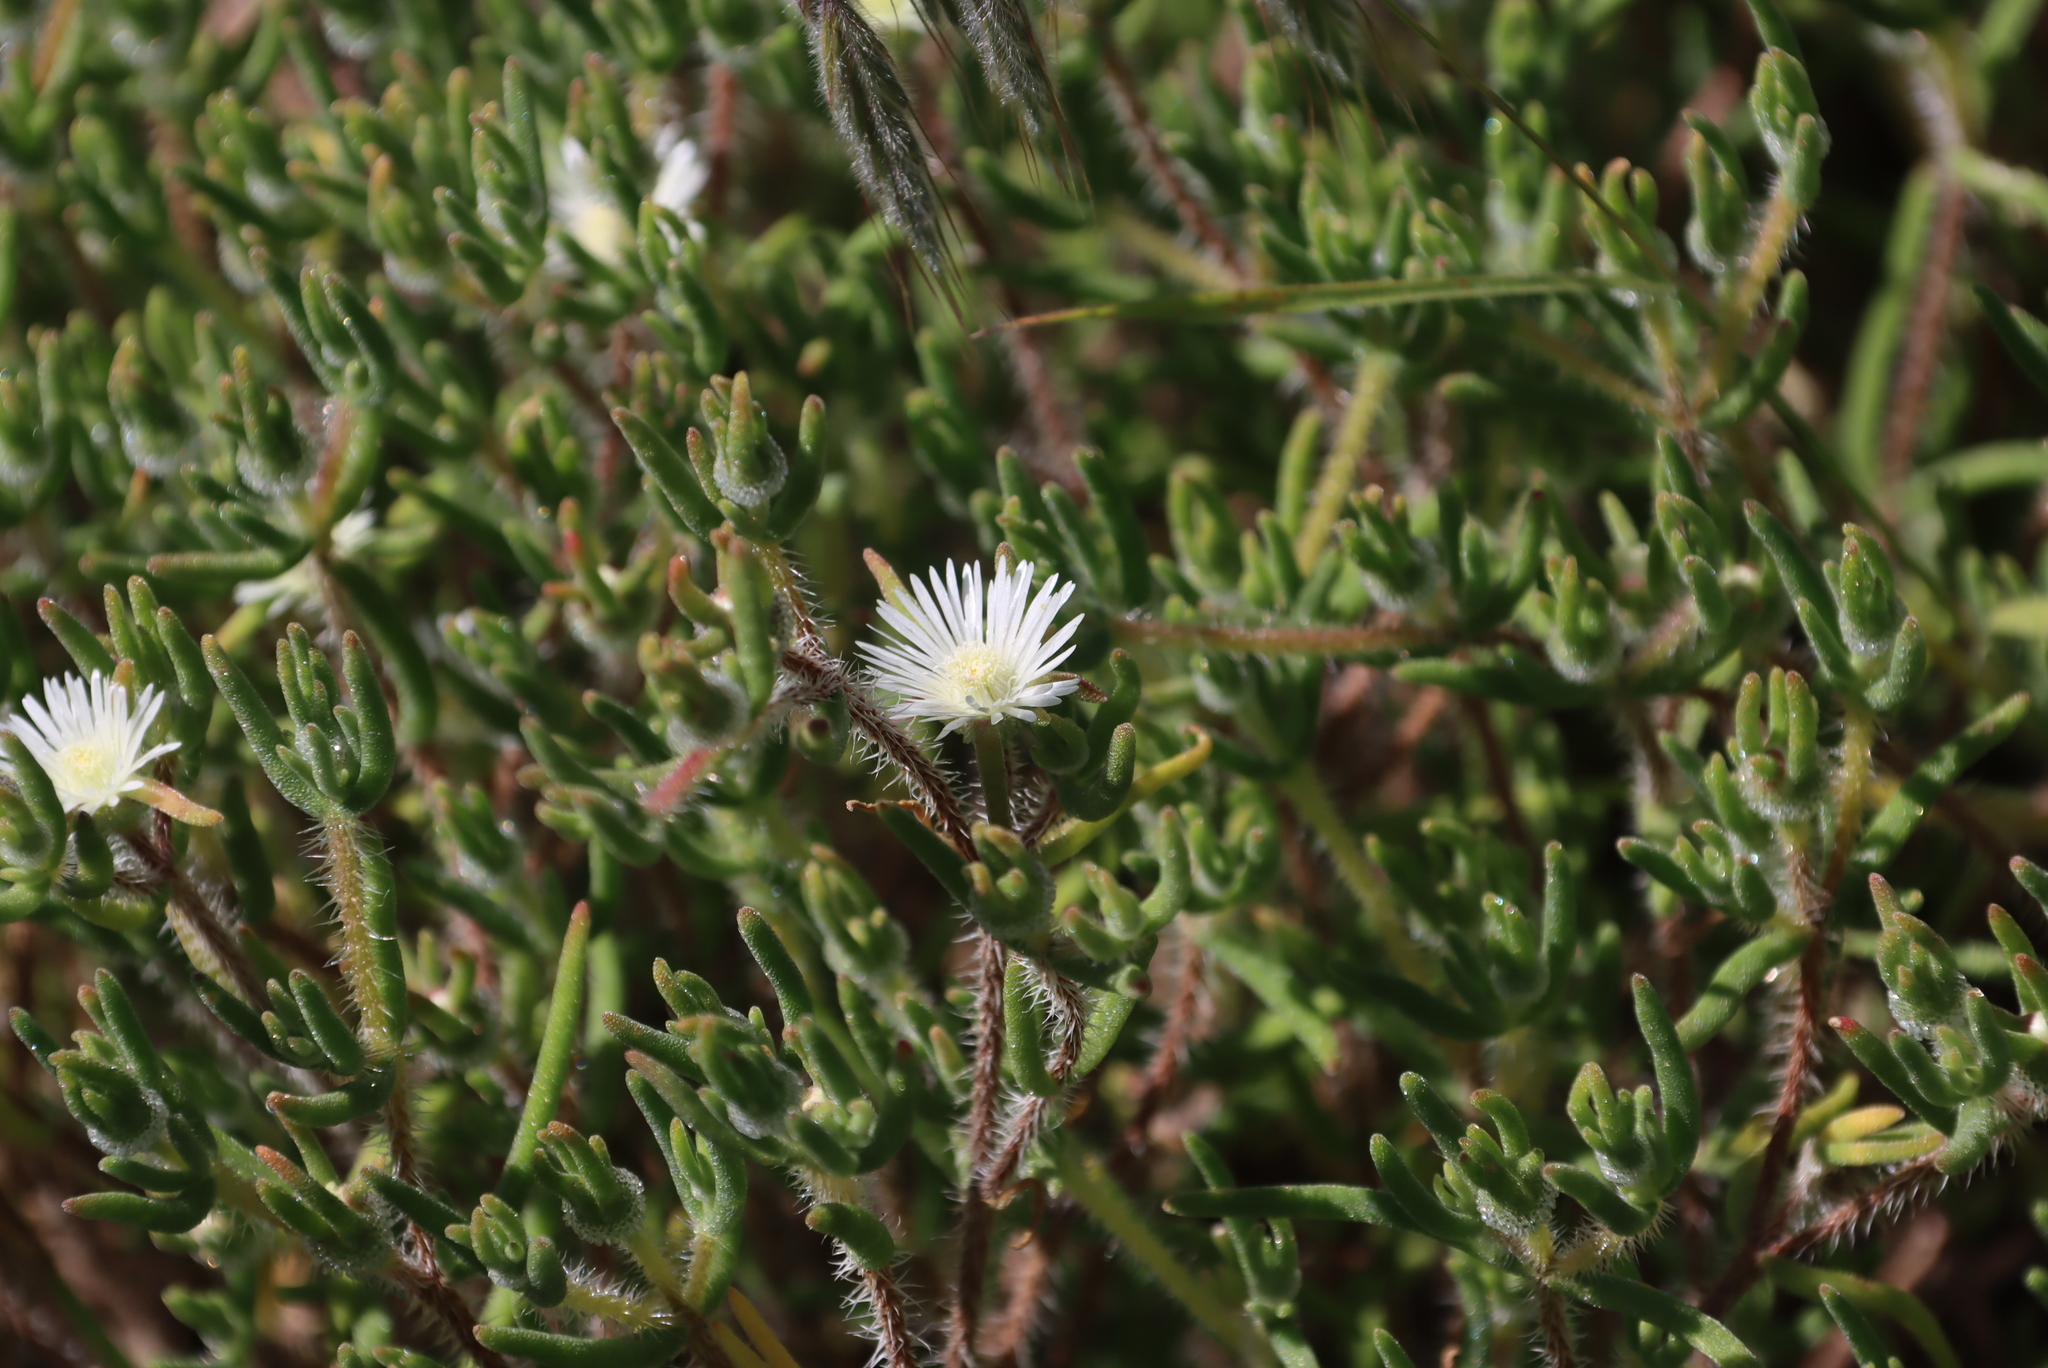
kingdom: Plantae
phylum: Tracheophyta
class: Magnoliopsida
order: Caryophyllales
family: Aizoaceae
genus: Drosanthemum
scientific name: Drosanthemum calycinum
